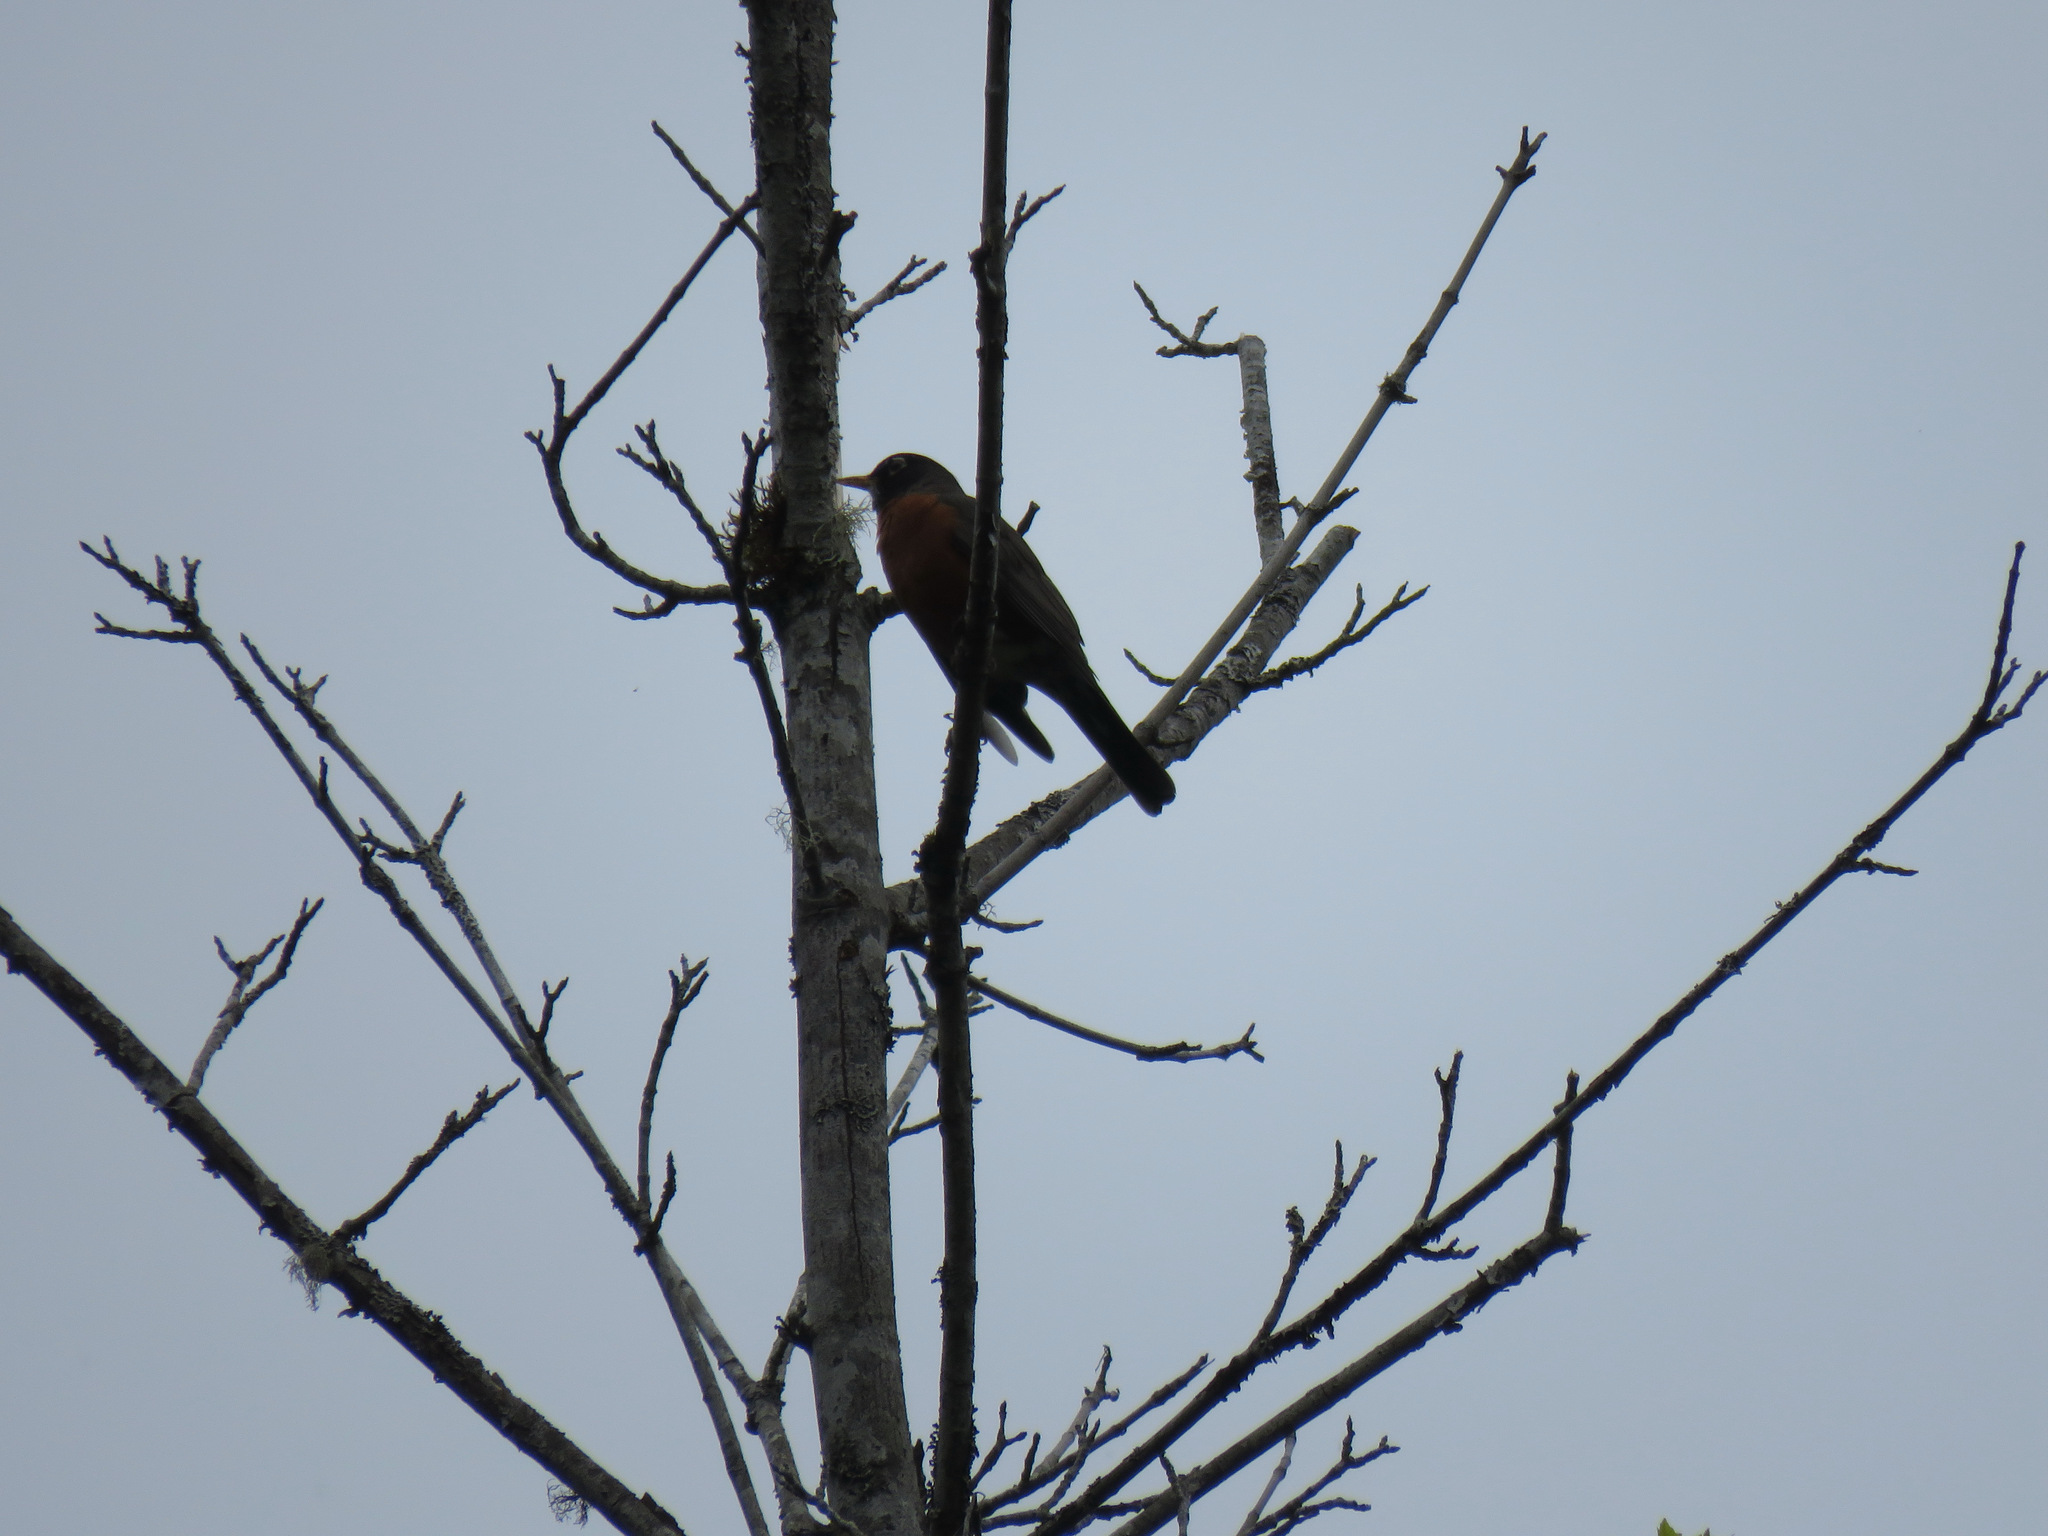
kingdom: Animalia
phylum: Chordata
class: Aves
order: Passeriformes
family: Turdidae
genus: Turdus
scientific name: Turdus migratorius
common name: American robin
